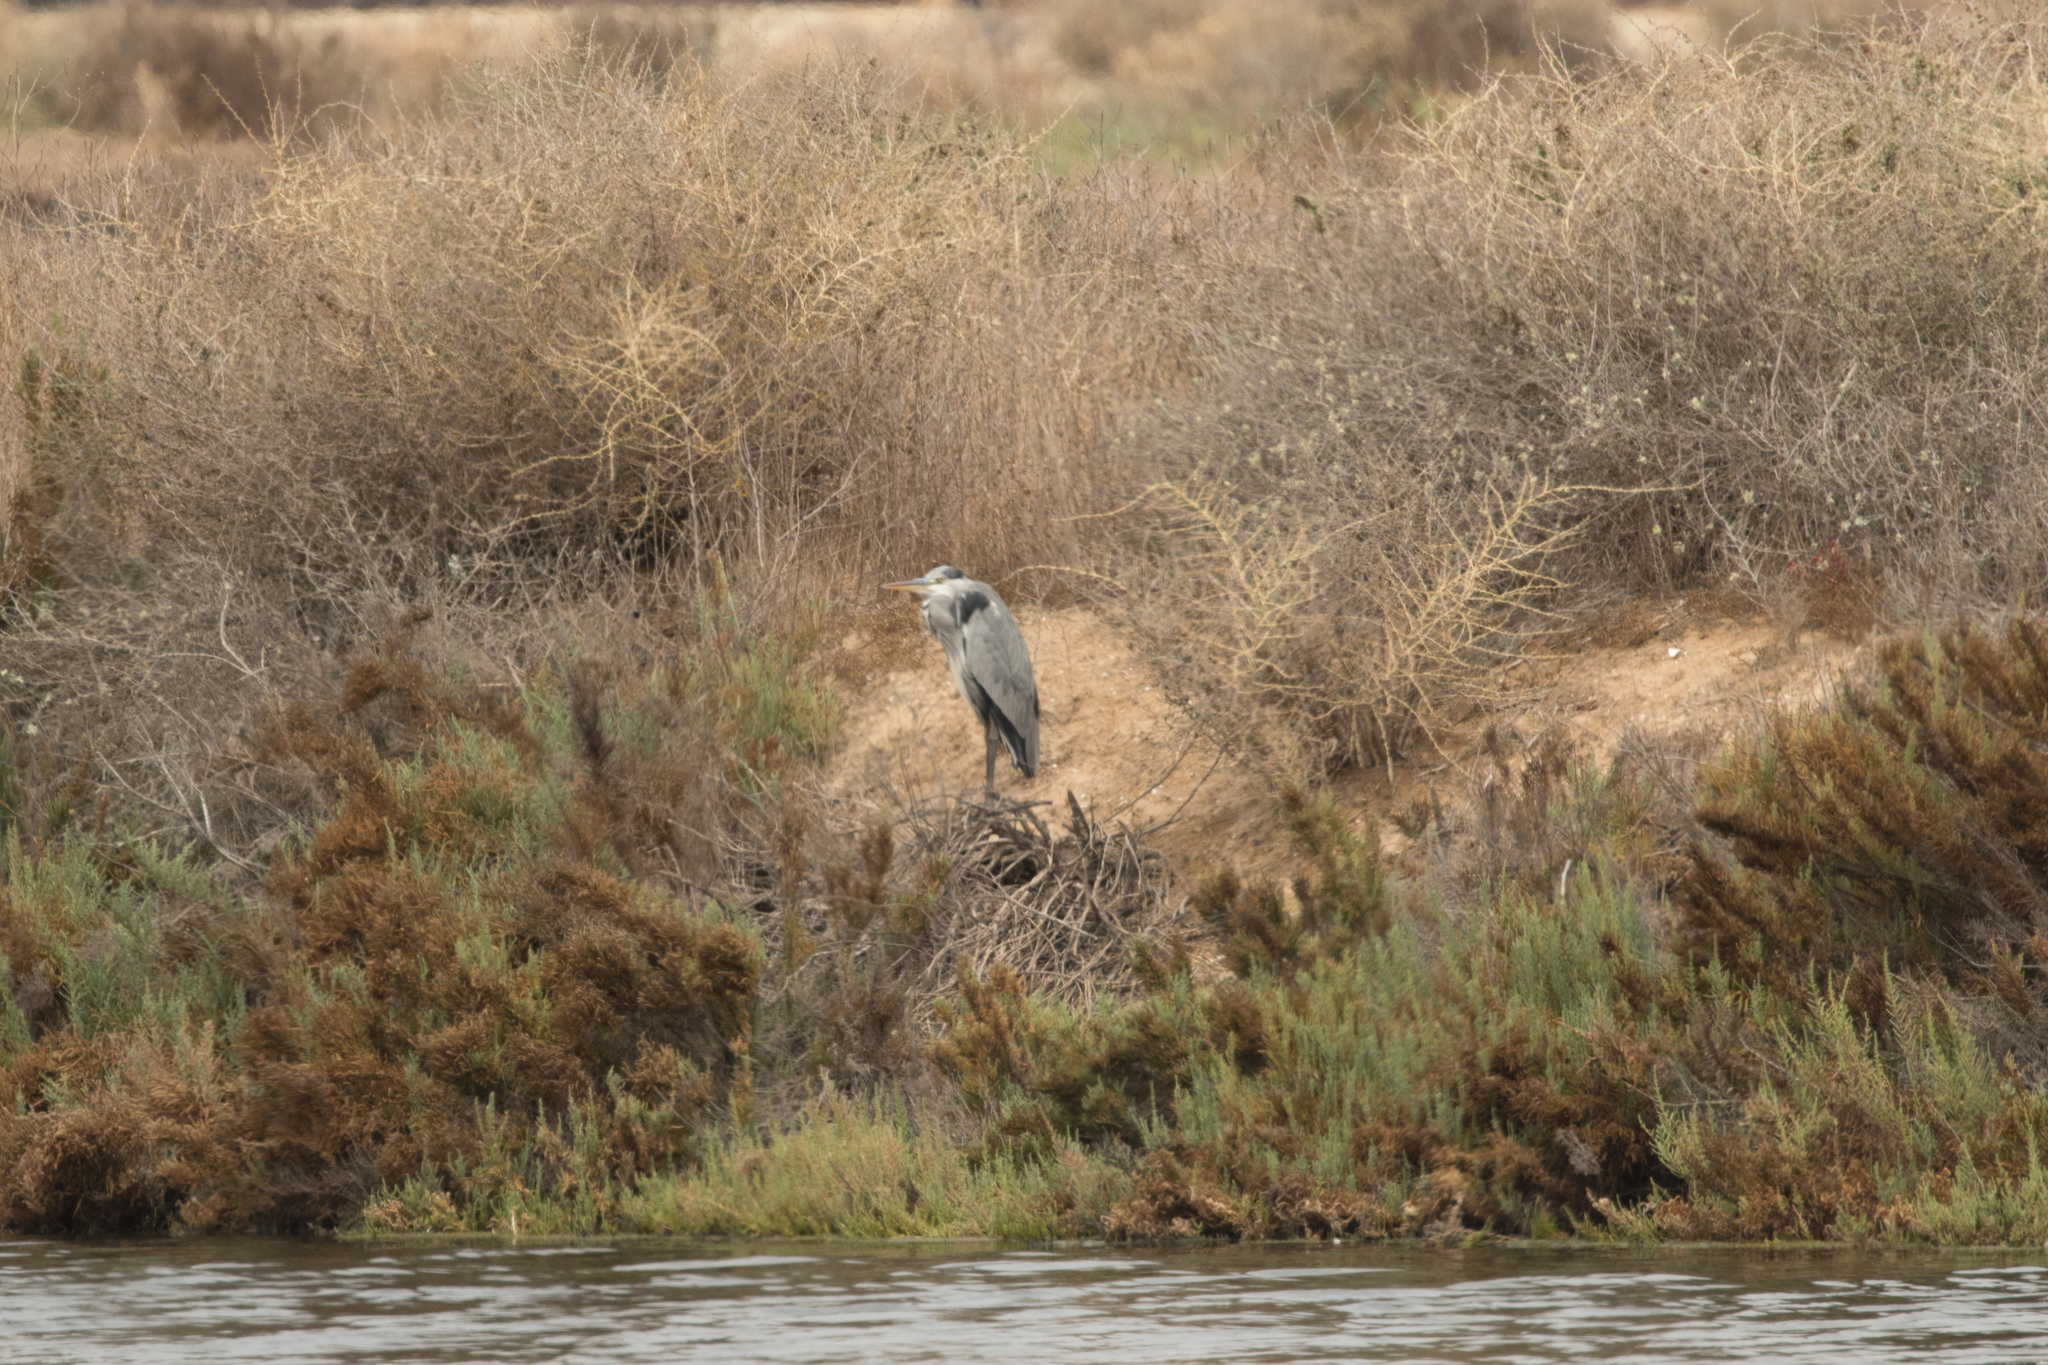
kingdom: Animalia
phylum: Chordata
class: Aves
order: Pelecaniformes
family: Ardeidae
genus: Ardea
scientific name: Ardea cinerea
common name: Grey heron
